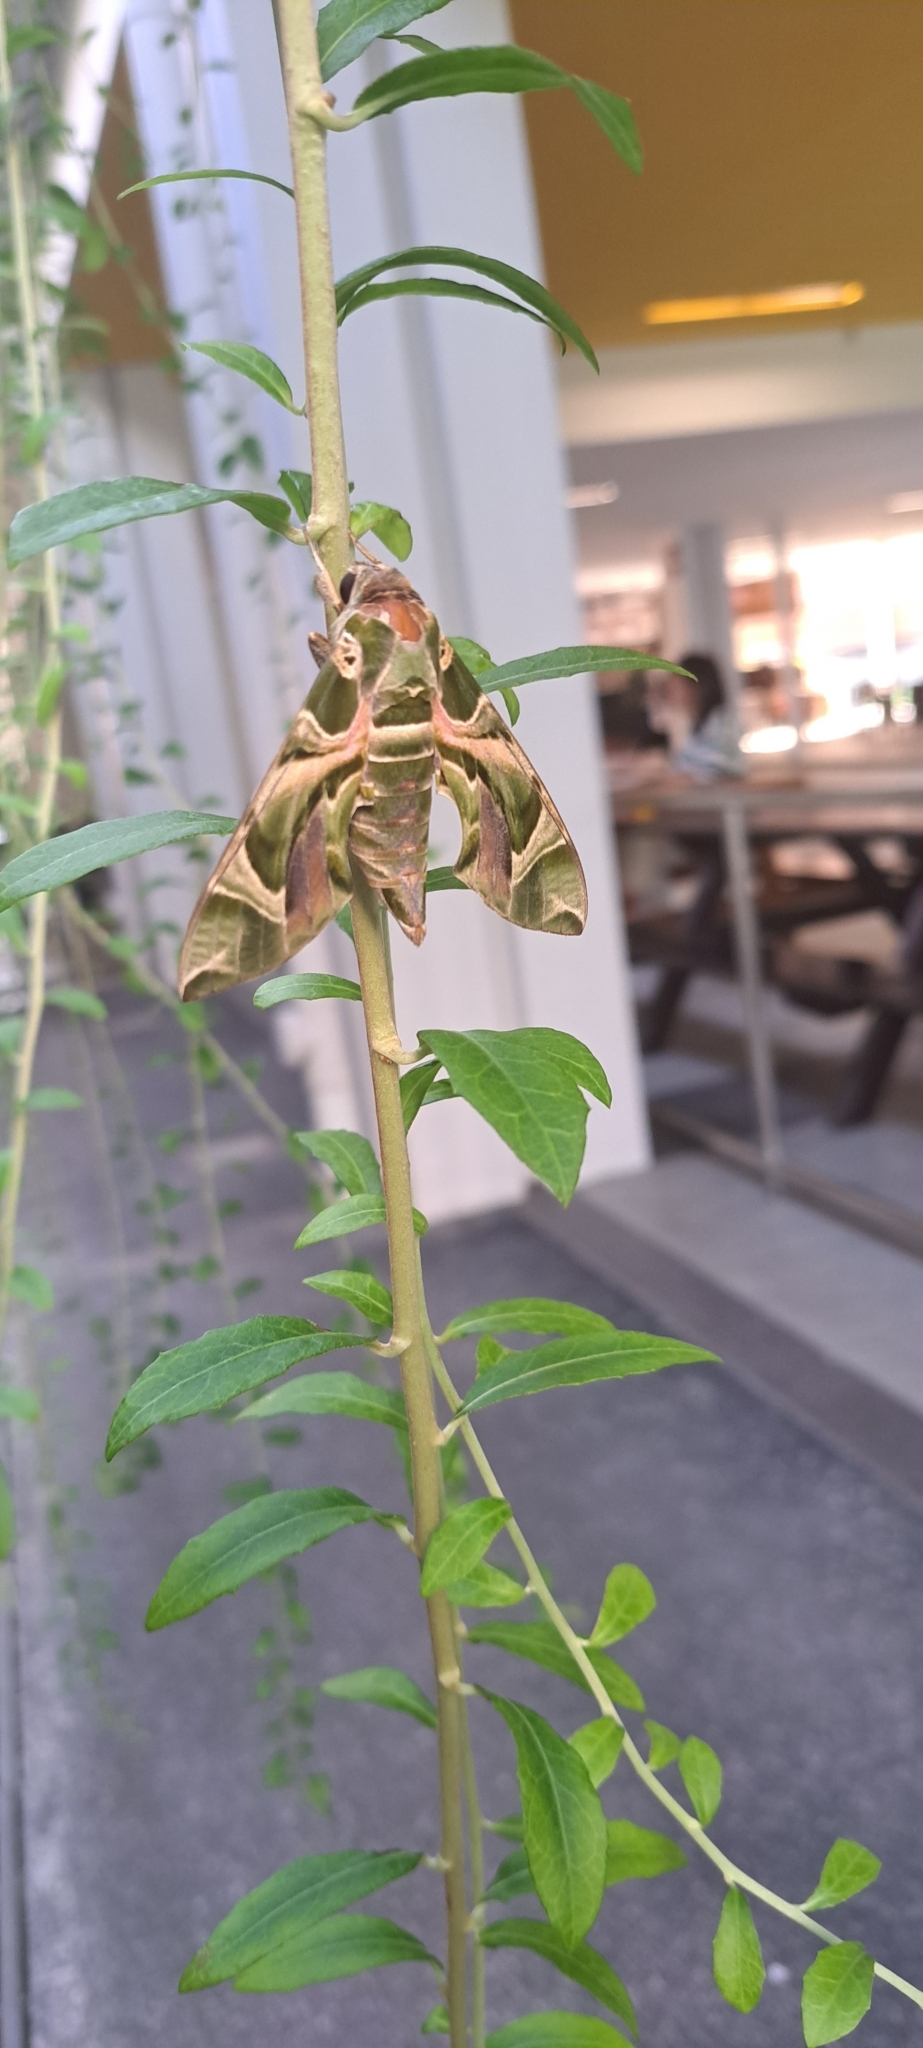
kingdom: Animalia
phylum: Arthropoda
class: Insecta
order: Lepidoptera
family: Sphingidae
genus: Daphnis
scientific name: Daphnis nerii
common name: Oleander hawk-moth
